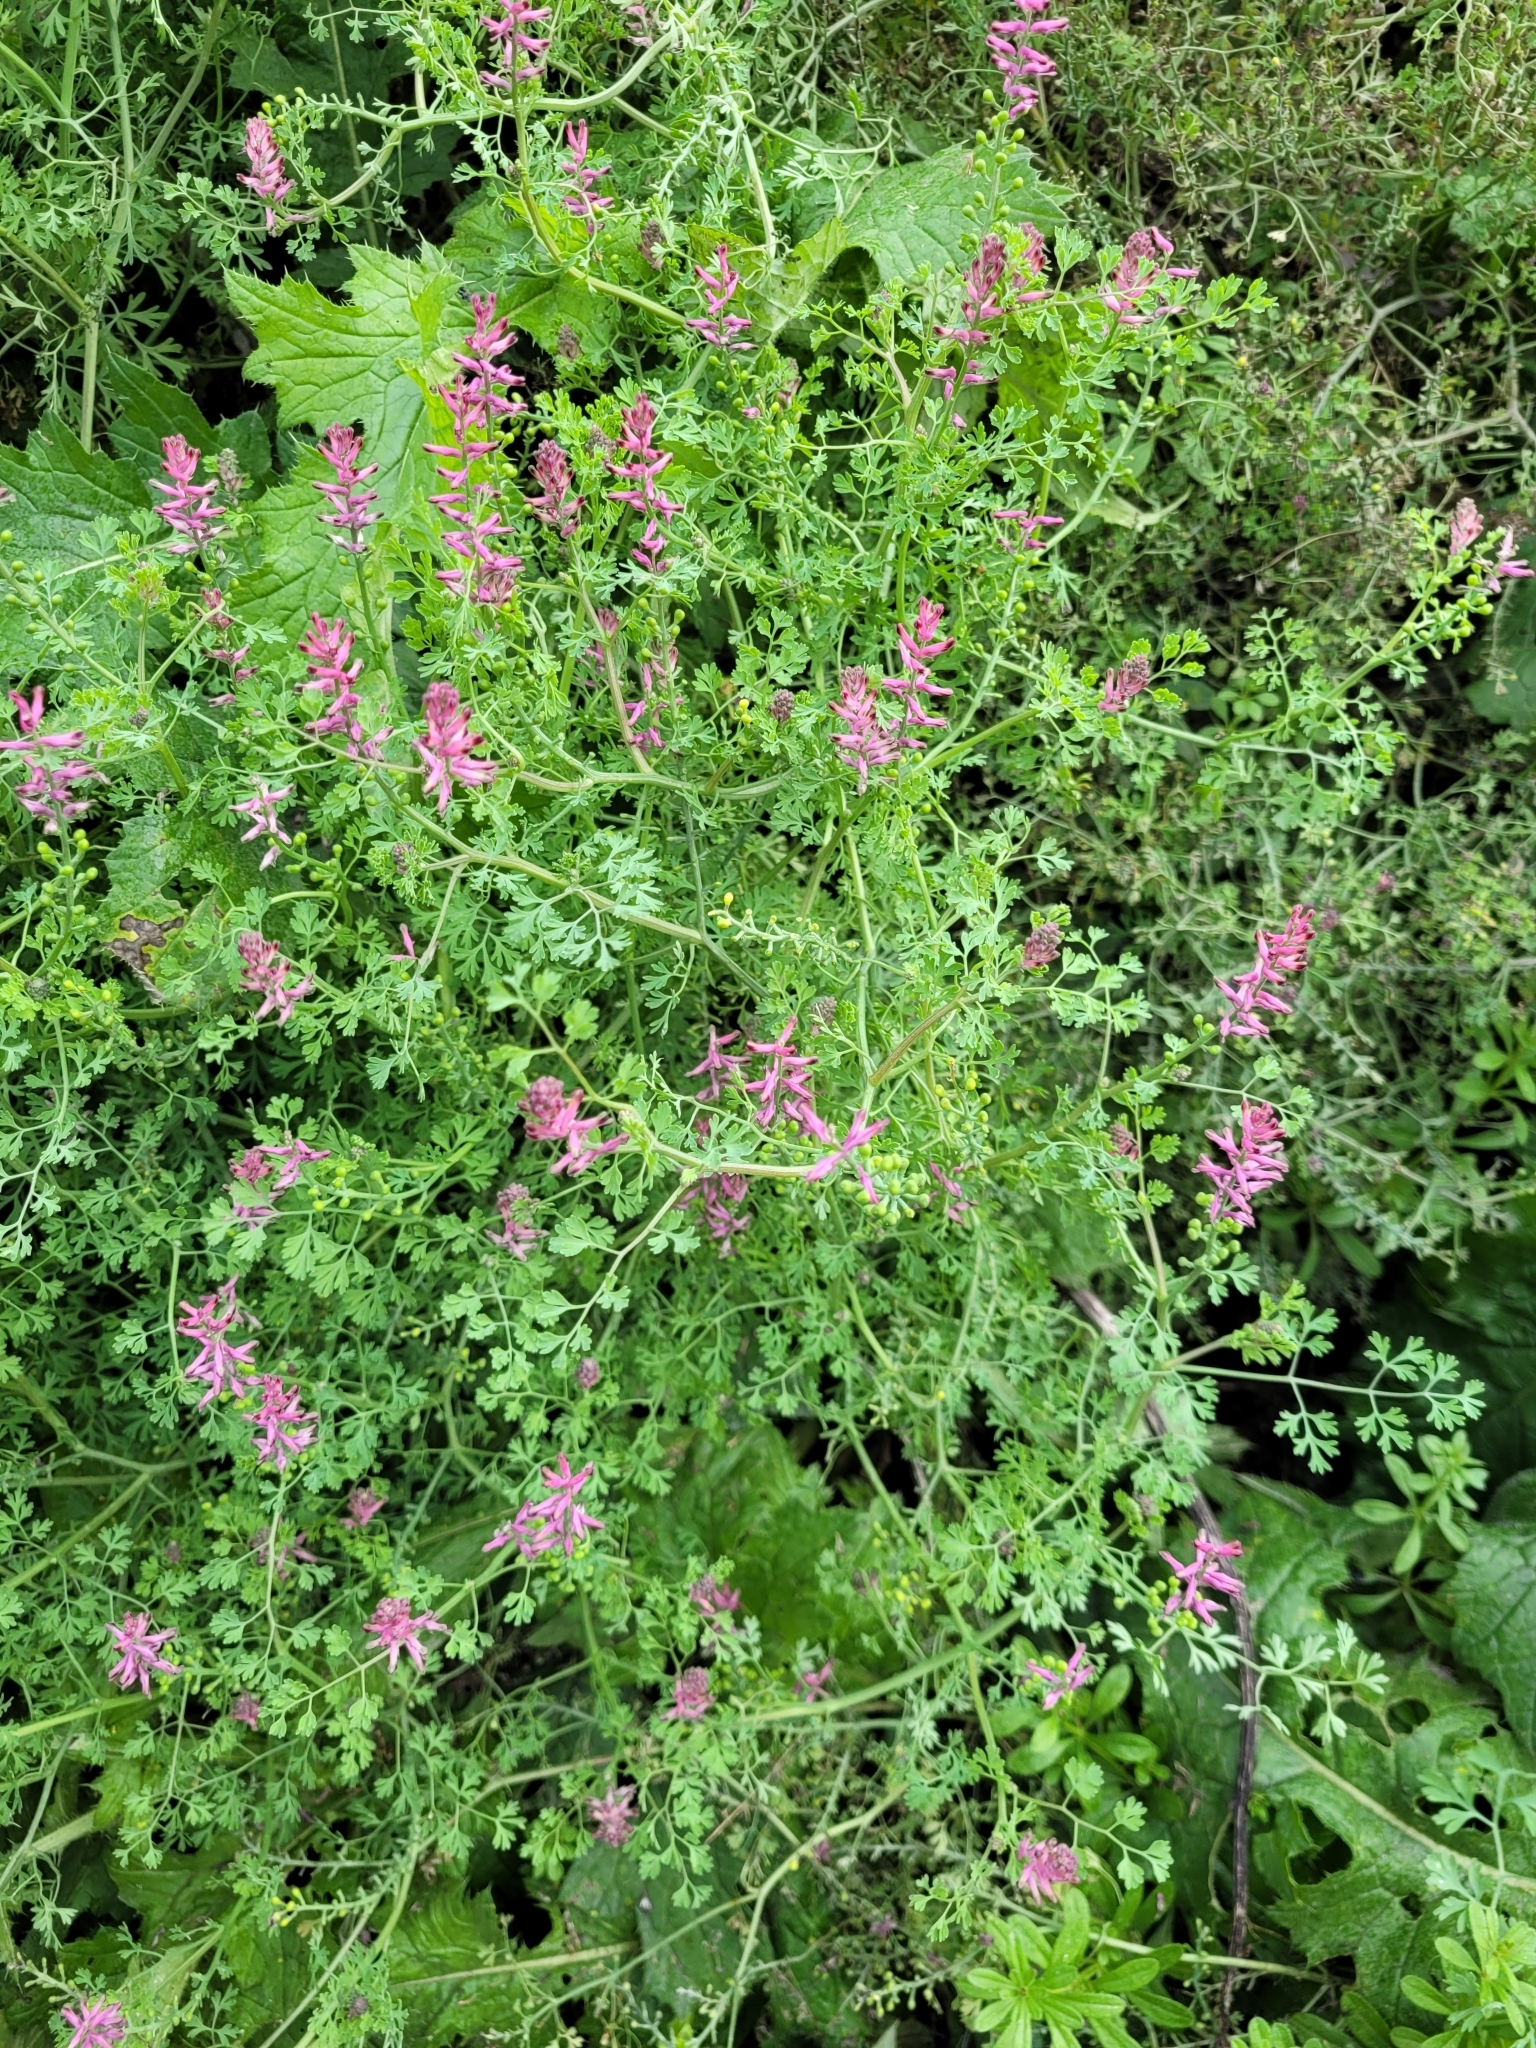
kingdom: Plantae
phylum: Tracheophyta
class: Magnoliopsida
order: Ranunculales
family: Papaveraceae
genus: Fumaria
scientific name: Fumaria officinalis
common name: Common fumitory
